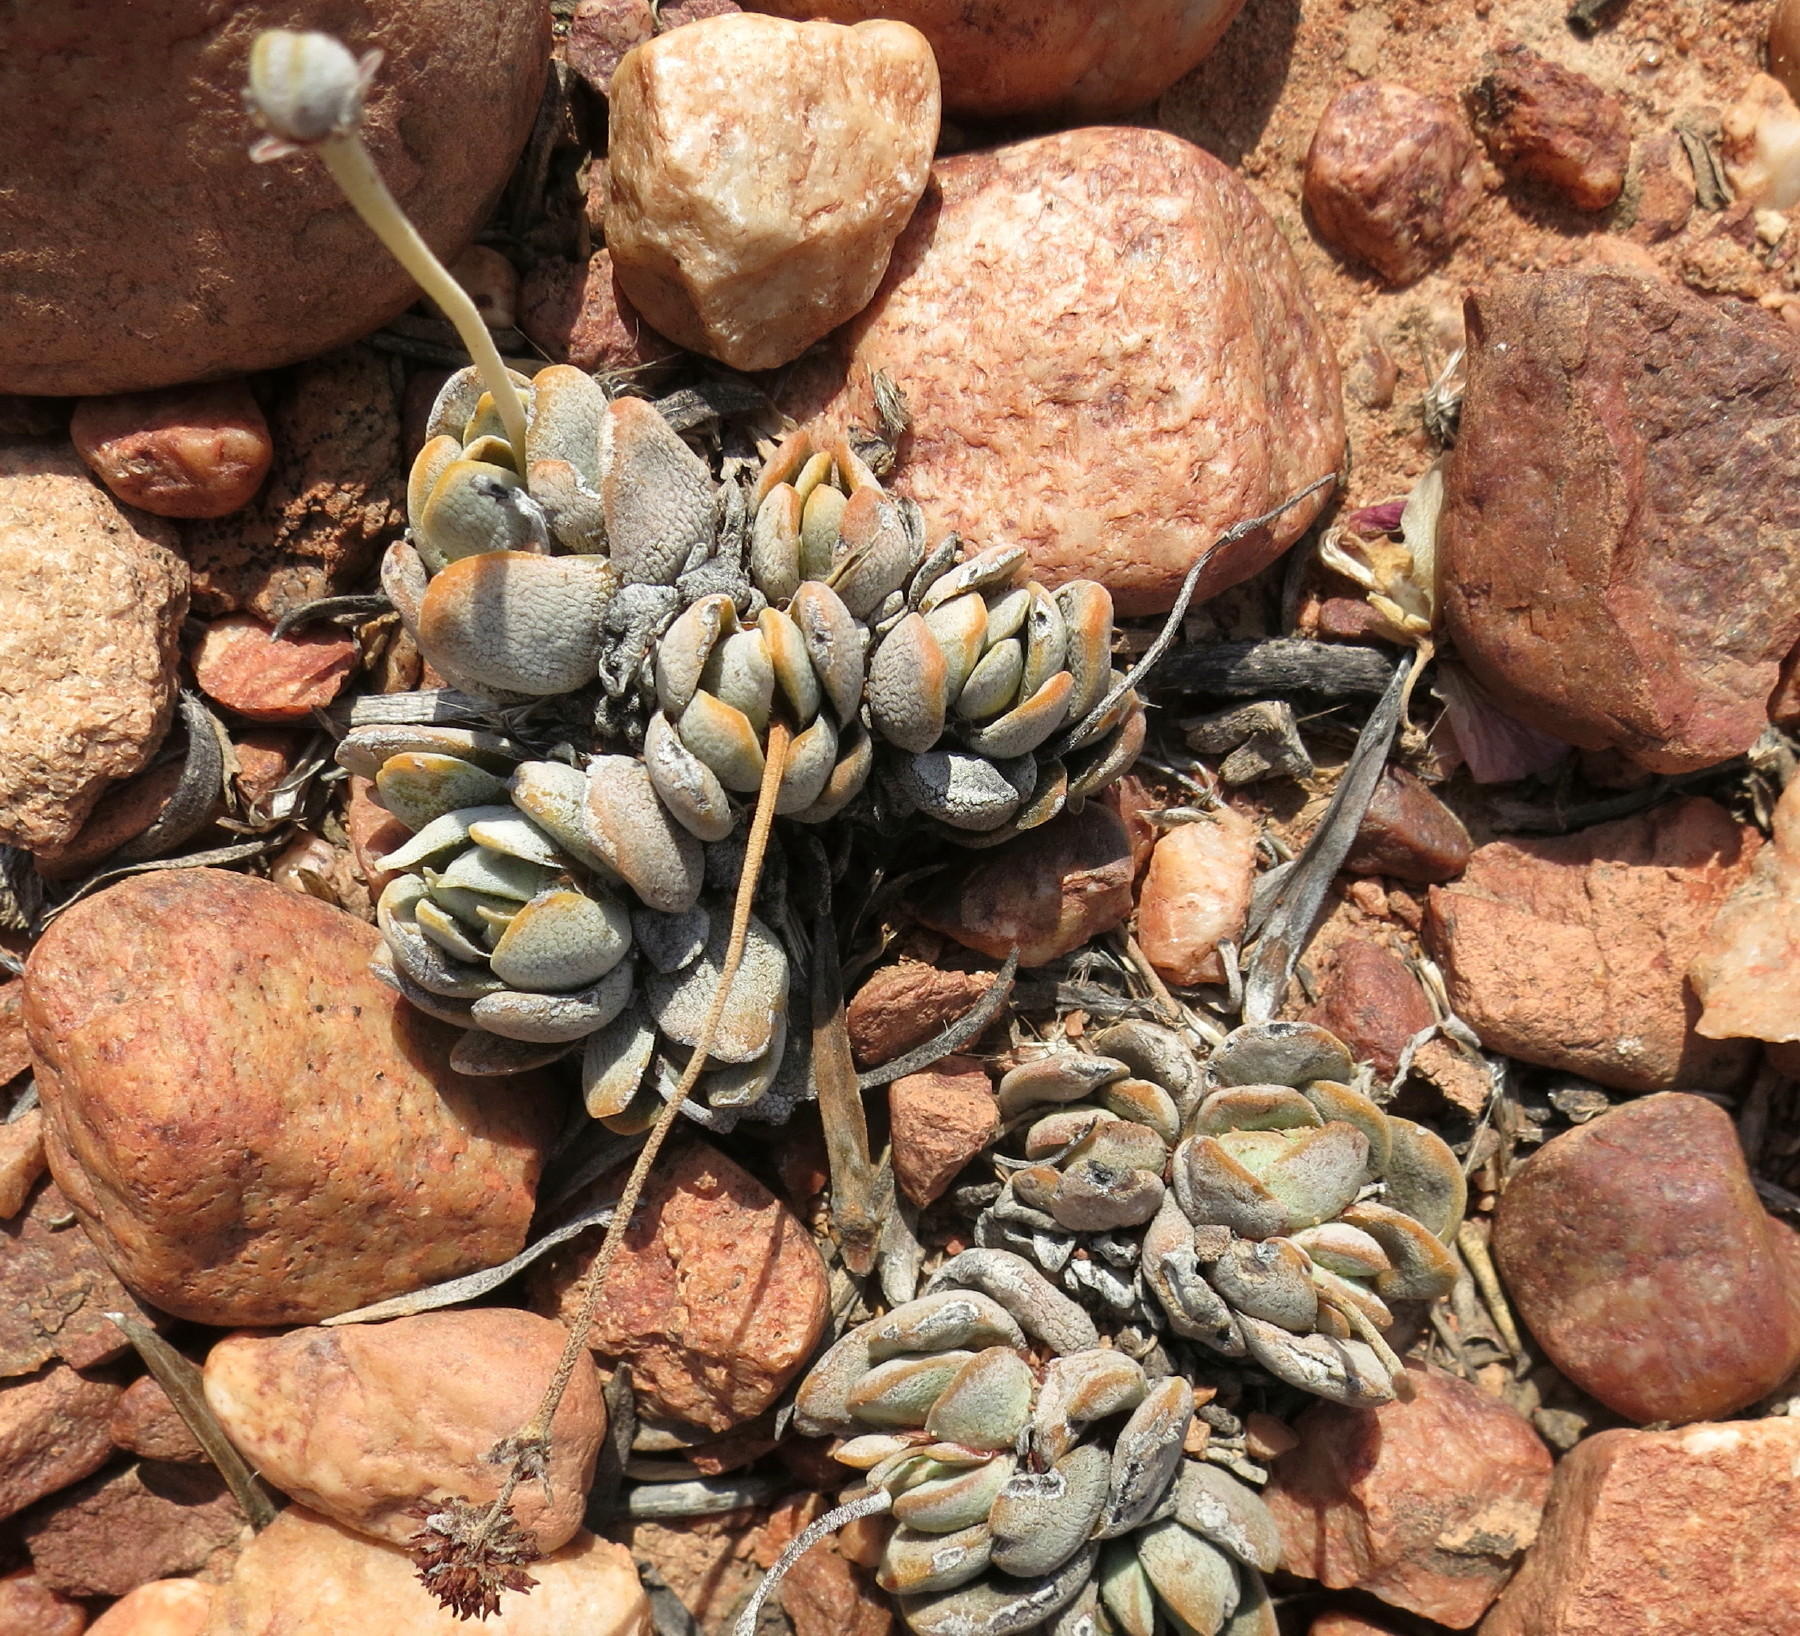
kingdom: Plantae
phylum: Tracheophyta
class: Magnoliopsida
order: Saxifragales
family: Crassulaceae
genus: Crassula
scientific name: Crassula tecta
